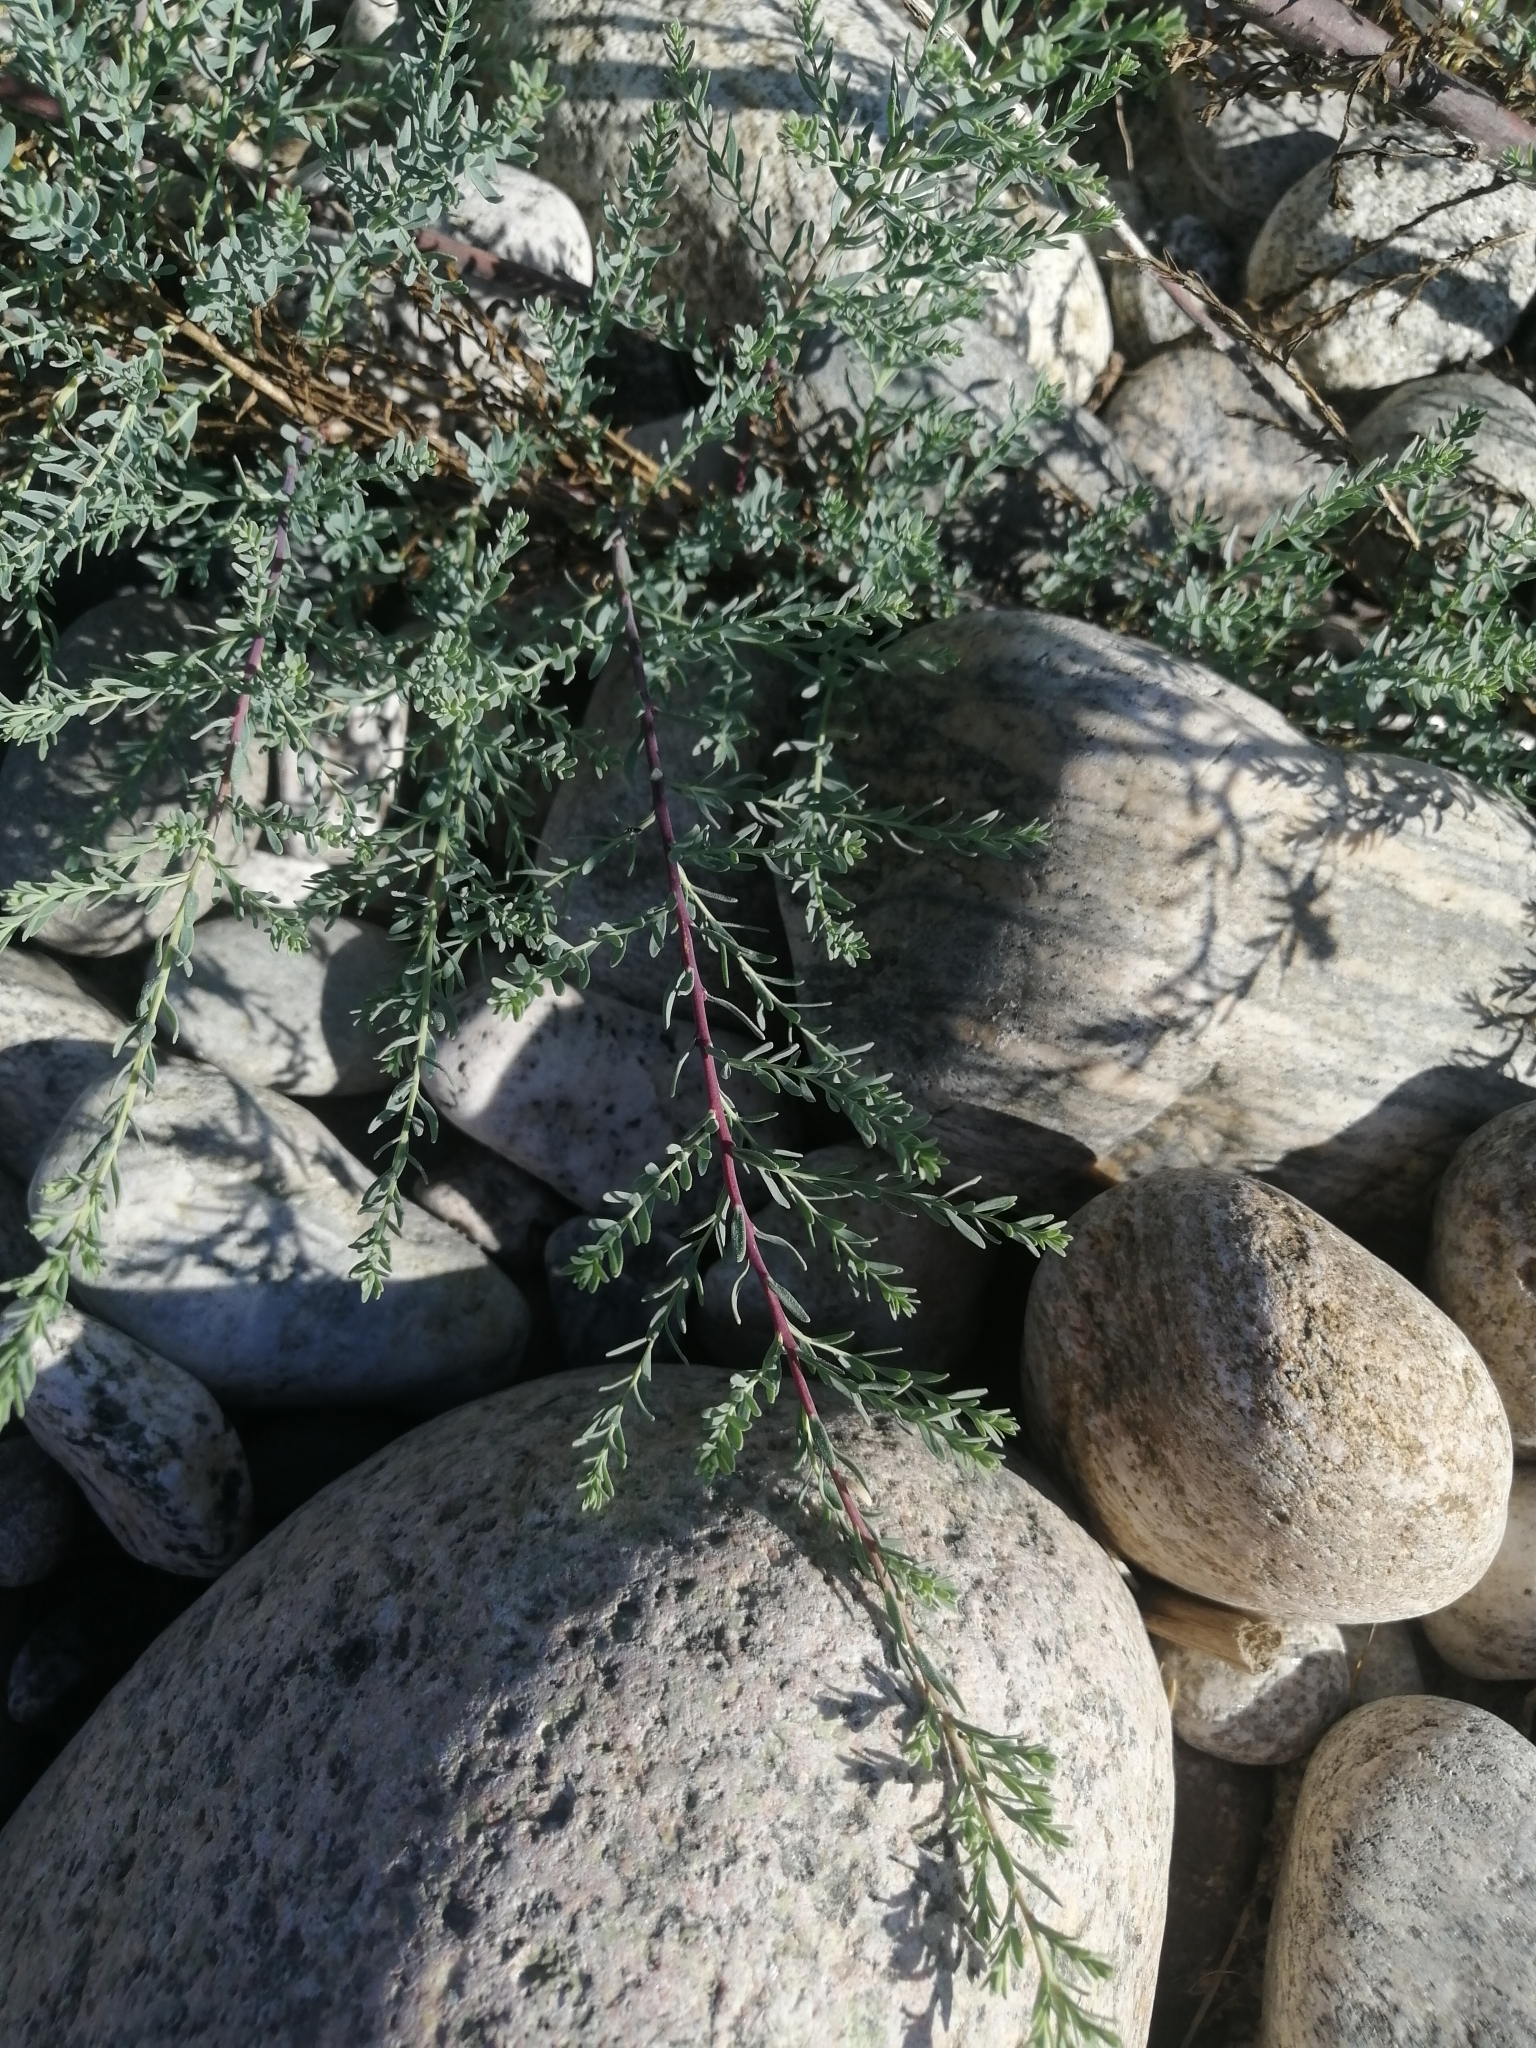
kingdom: Plantae
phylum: Tracheophyta
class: Magnoliopsida
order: Caryophyllales
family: Tamaricaceae
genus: Myricaria
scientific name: Myricaria longifolia
